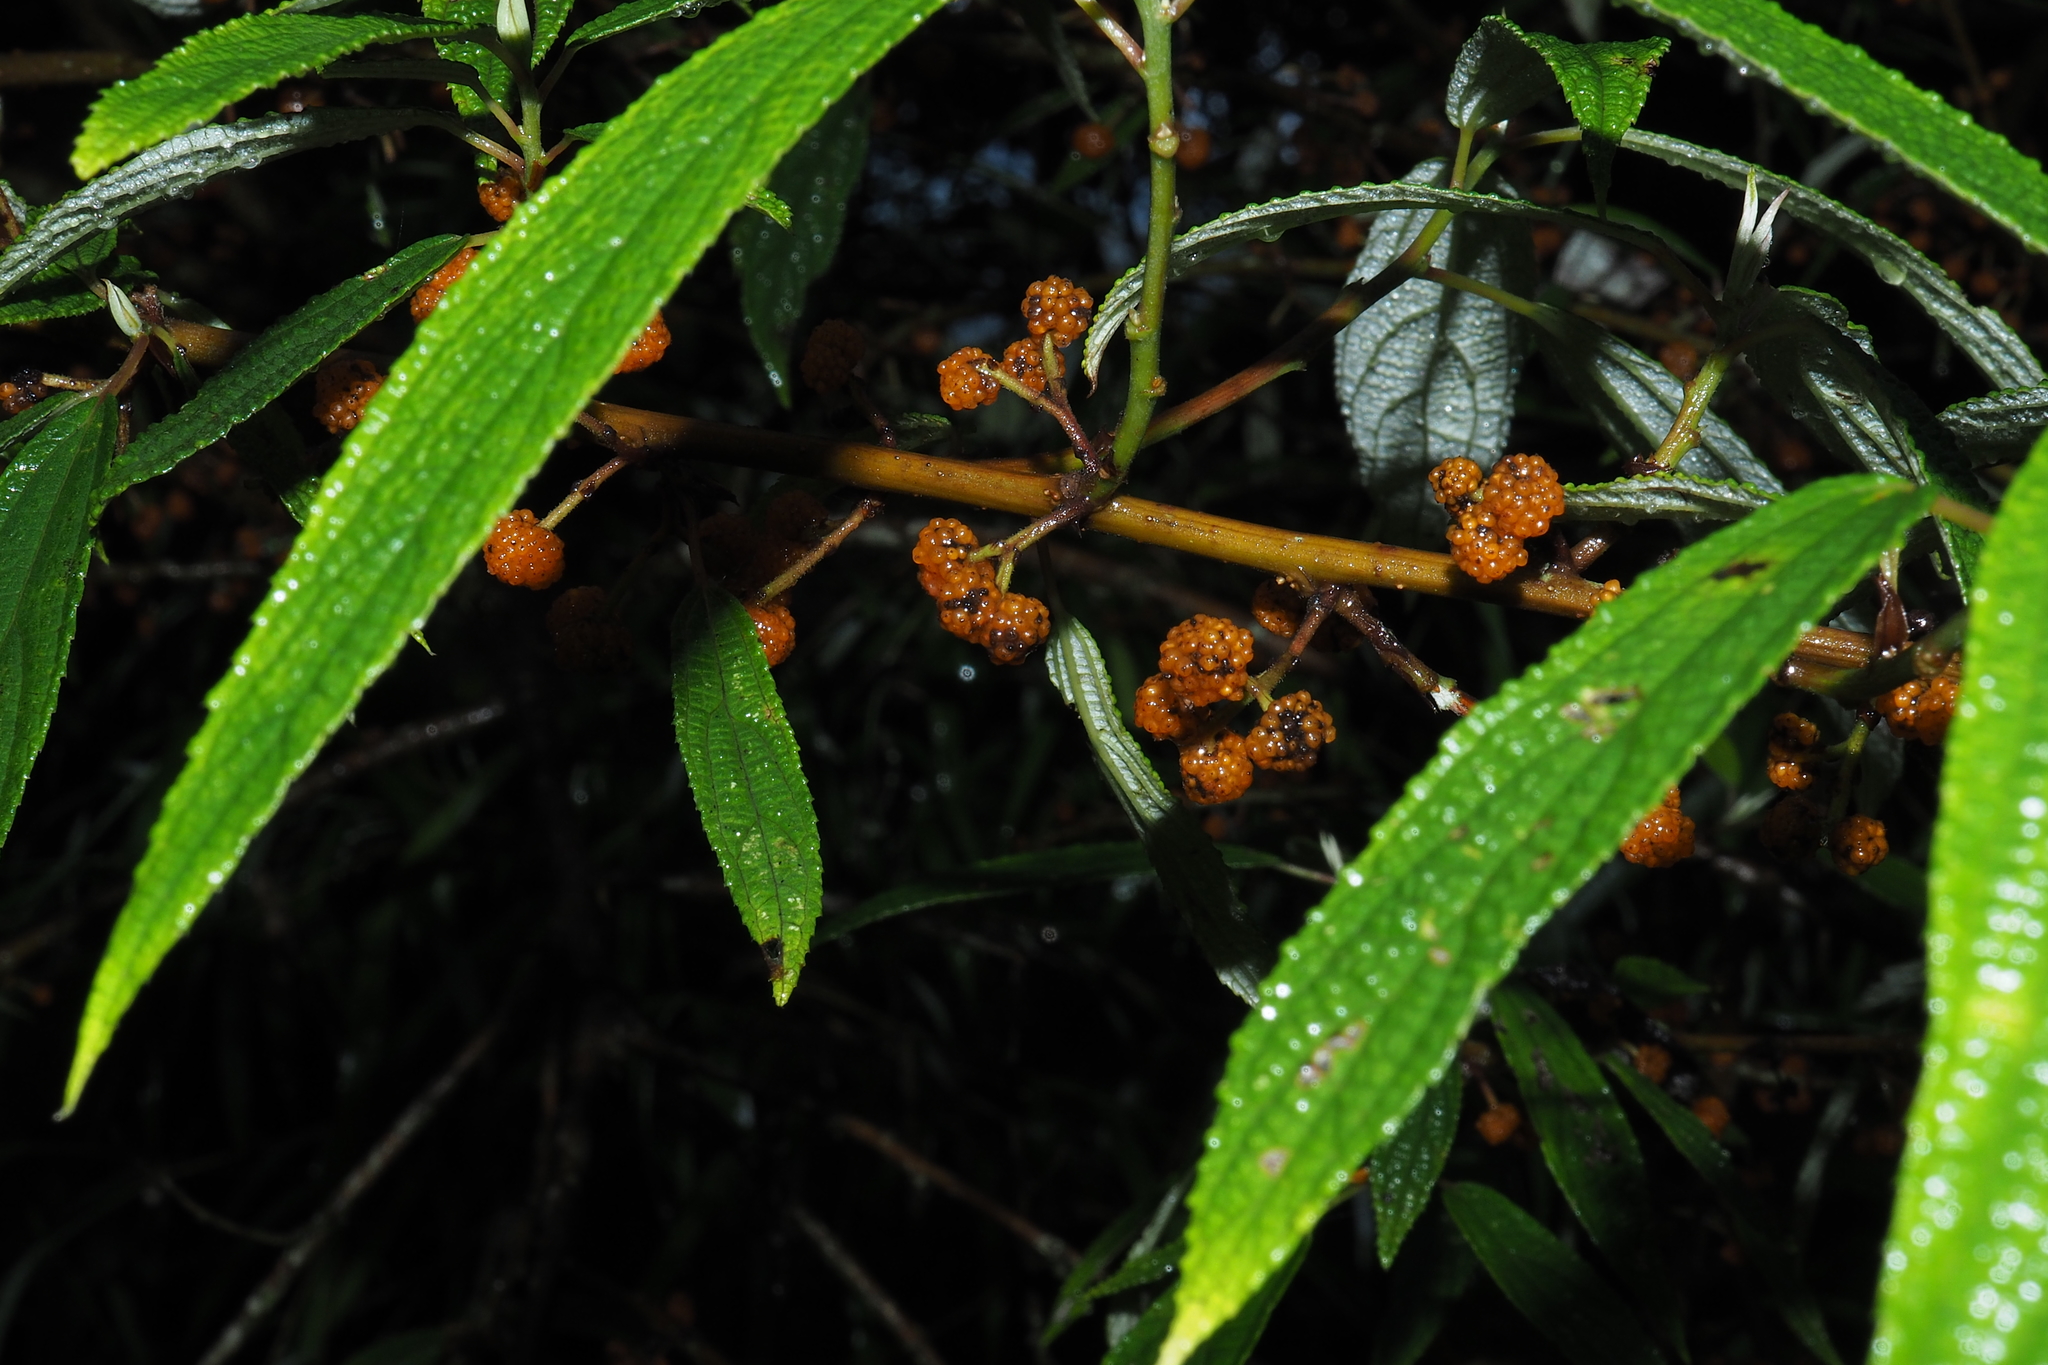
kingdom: Plantae
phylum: Tracheophyta
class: Magnoliopsida
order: Rosales
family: Urticaceae
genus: Debregeasia
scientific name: Debregeasia orientalis
